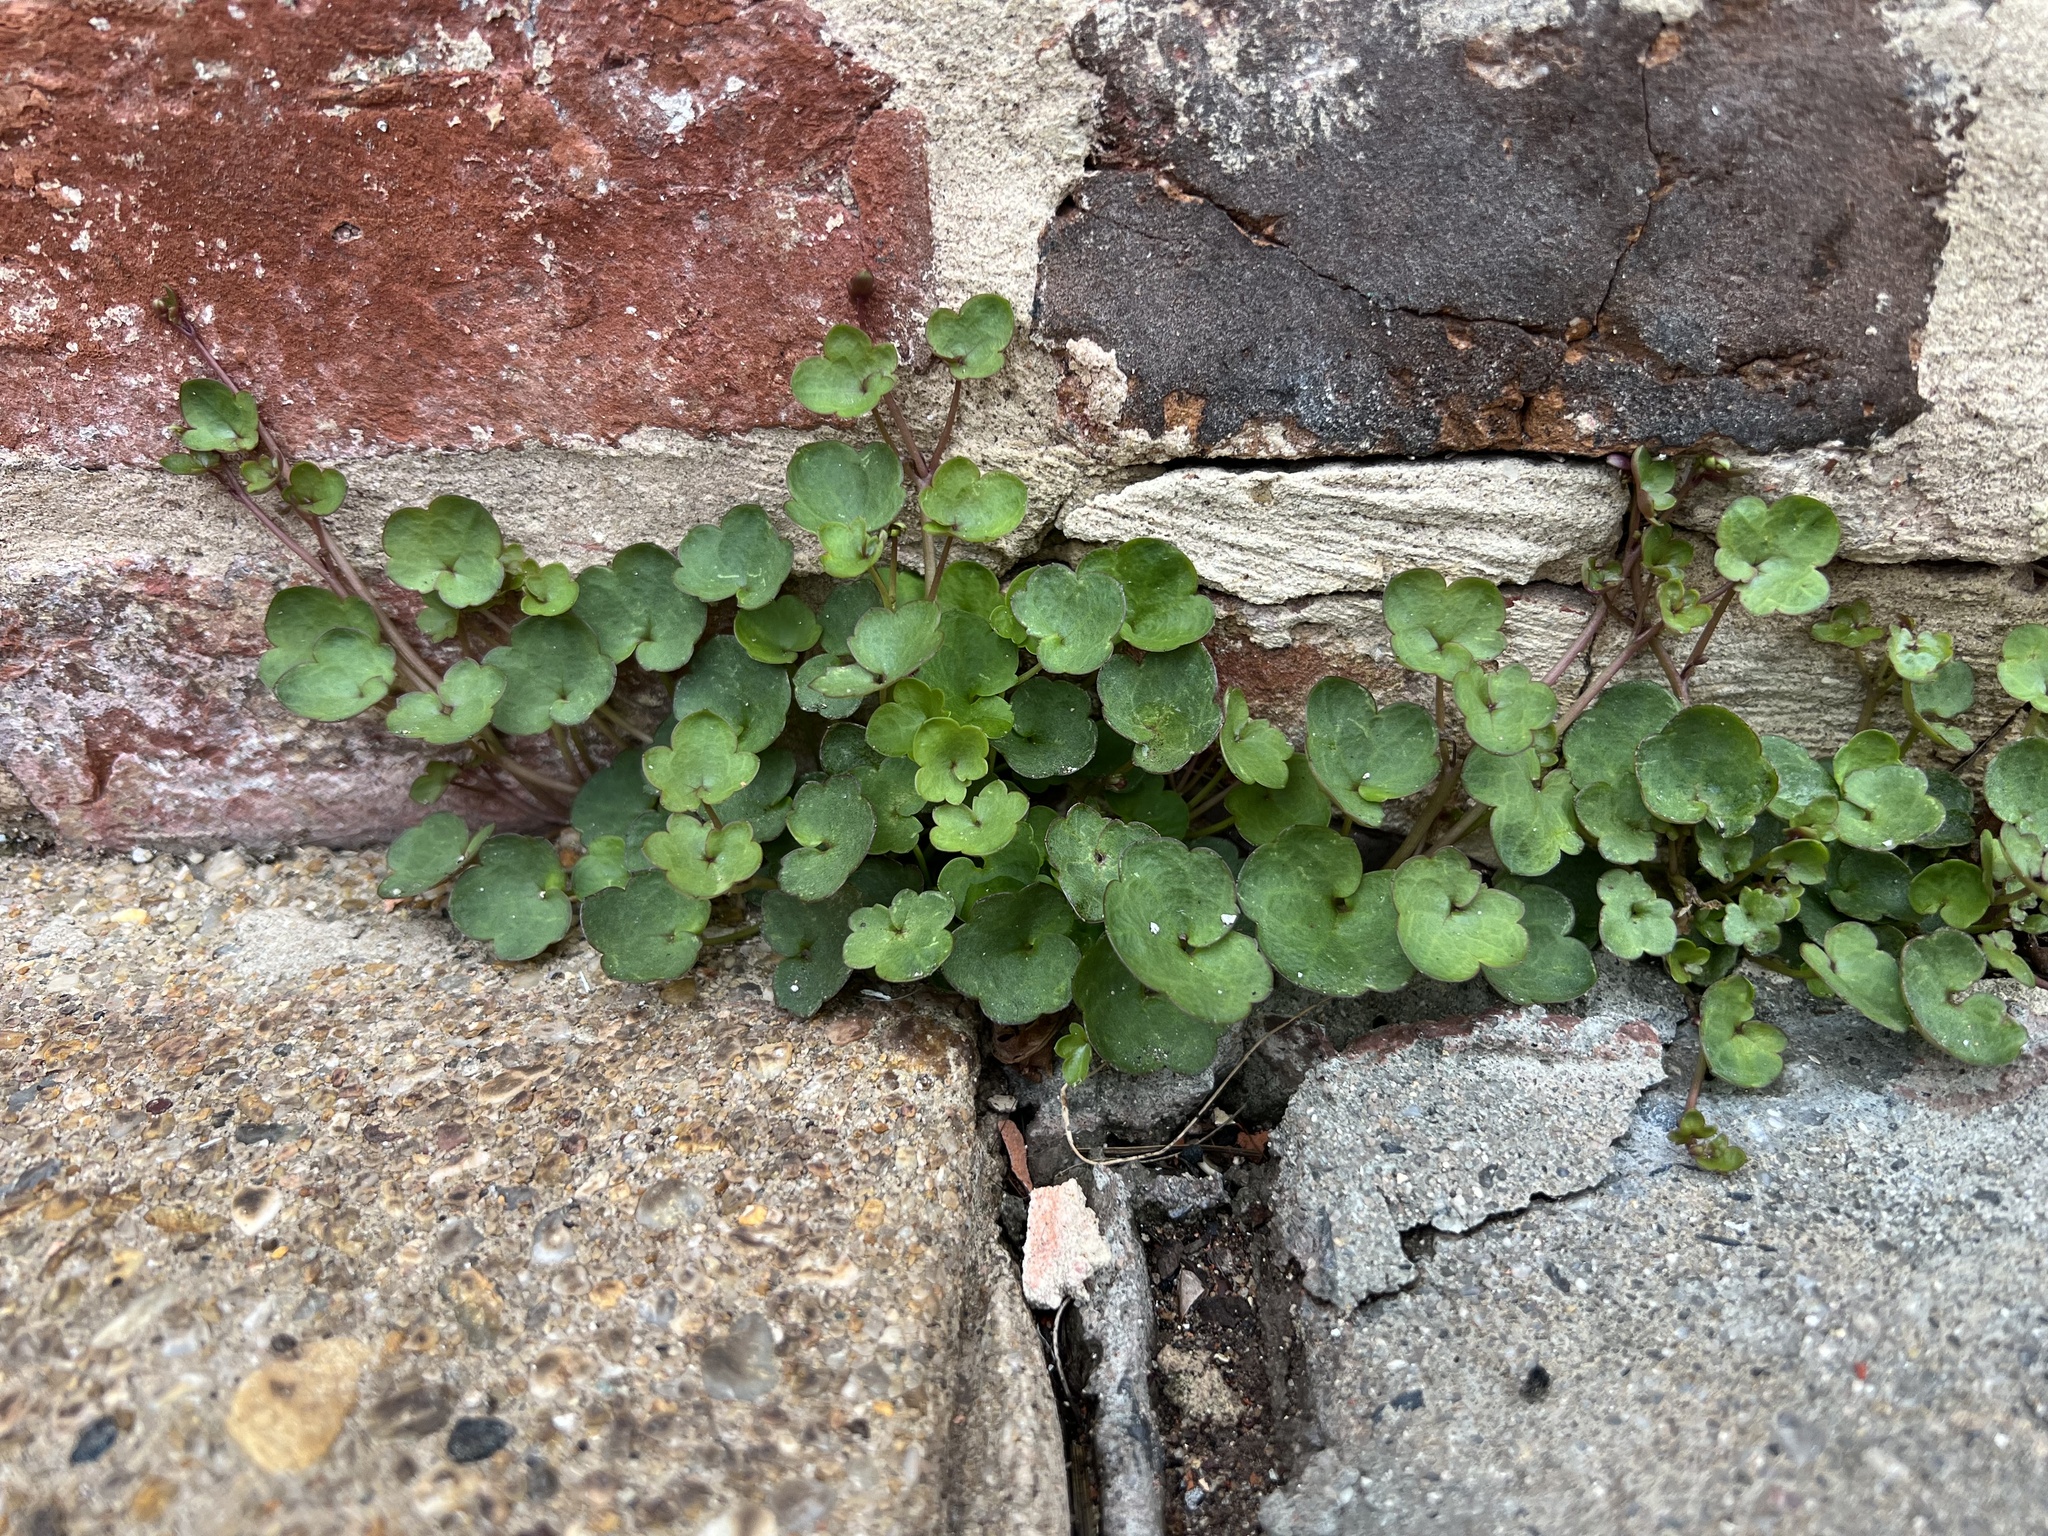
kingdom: Plantae
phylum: Tracheophyta
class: Magnoliopsida
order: Lamiales
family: Plantaginaceae
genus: Cymbalaria
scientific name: Cymbalaria muralis
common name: Ivy-leaved toadflax
